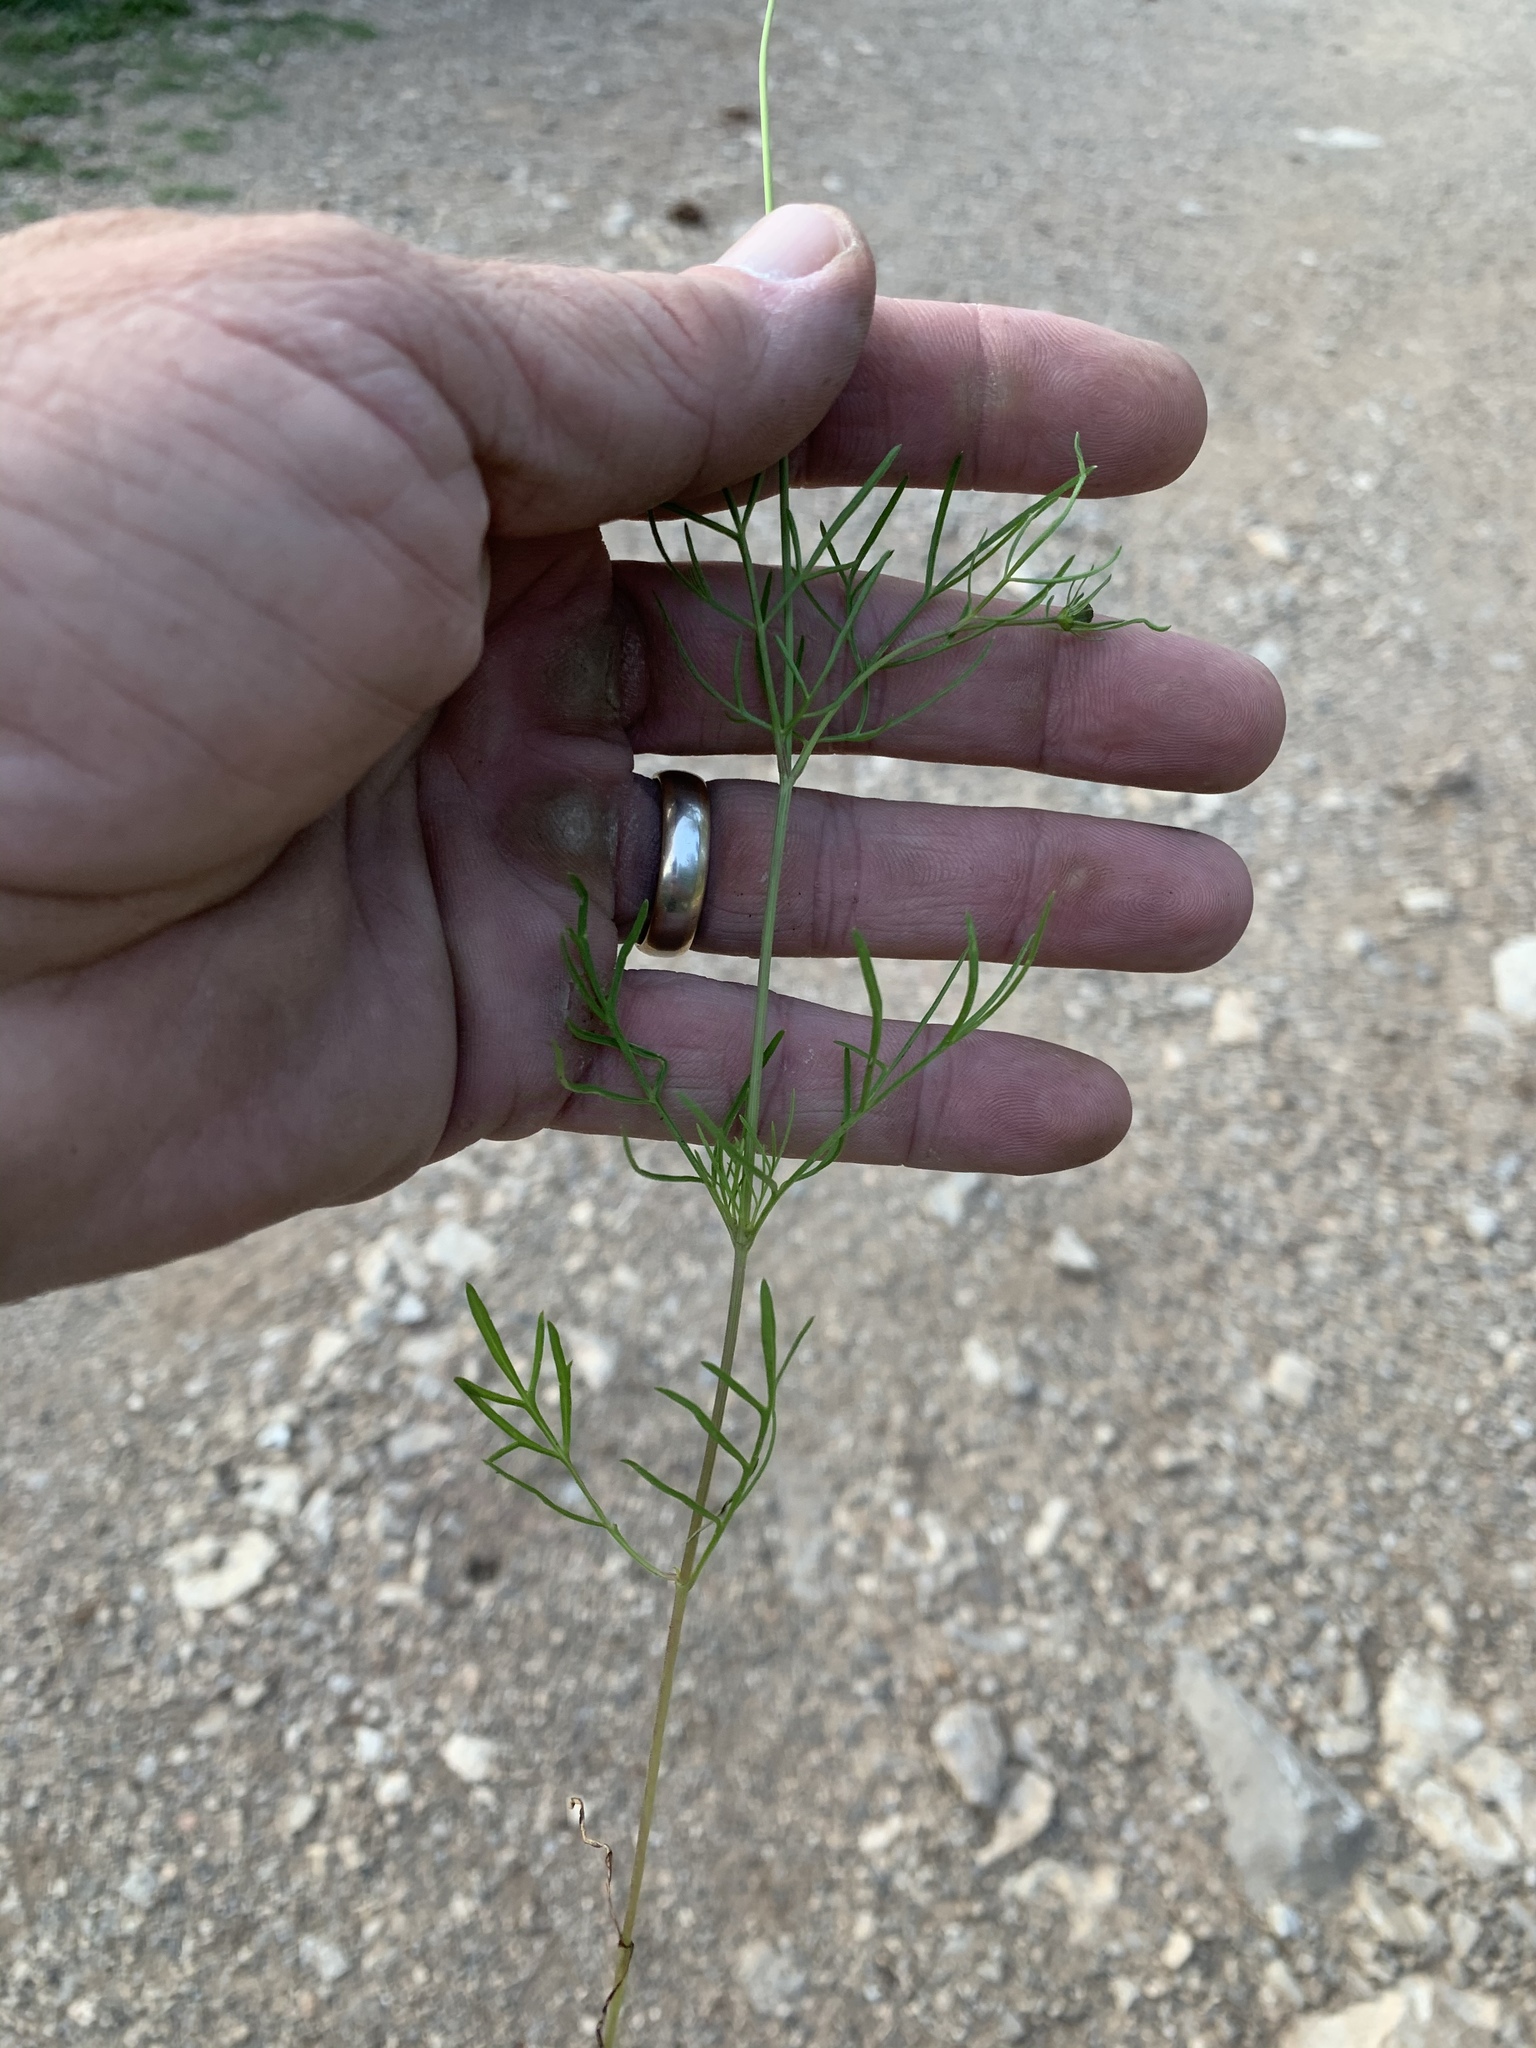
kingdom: Plantae
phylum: Tracheophyta
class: Magnoliopsida
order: Asterales
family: Asteraceae
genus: Cosmos
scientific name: Cosmos parviflorus
